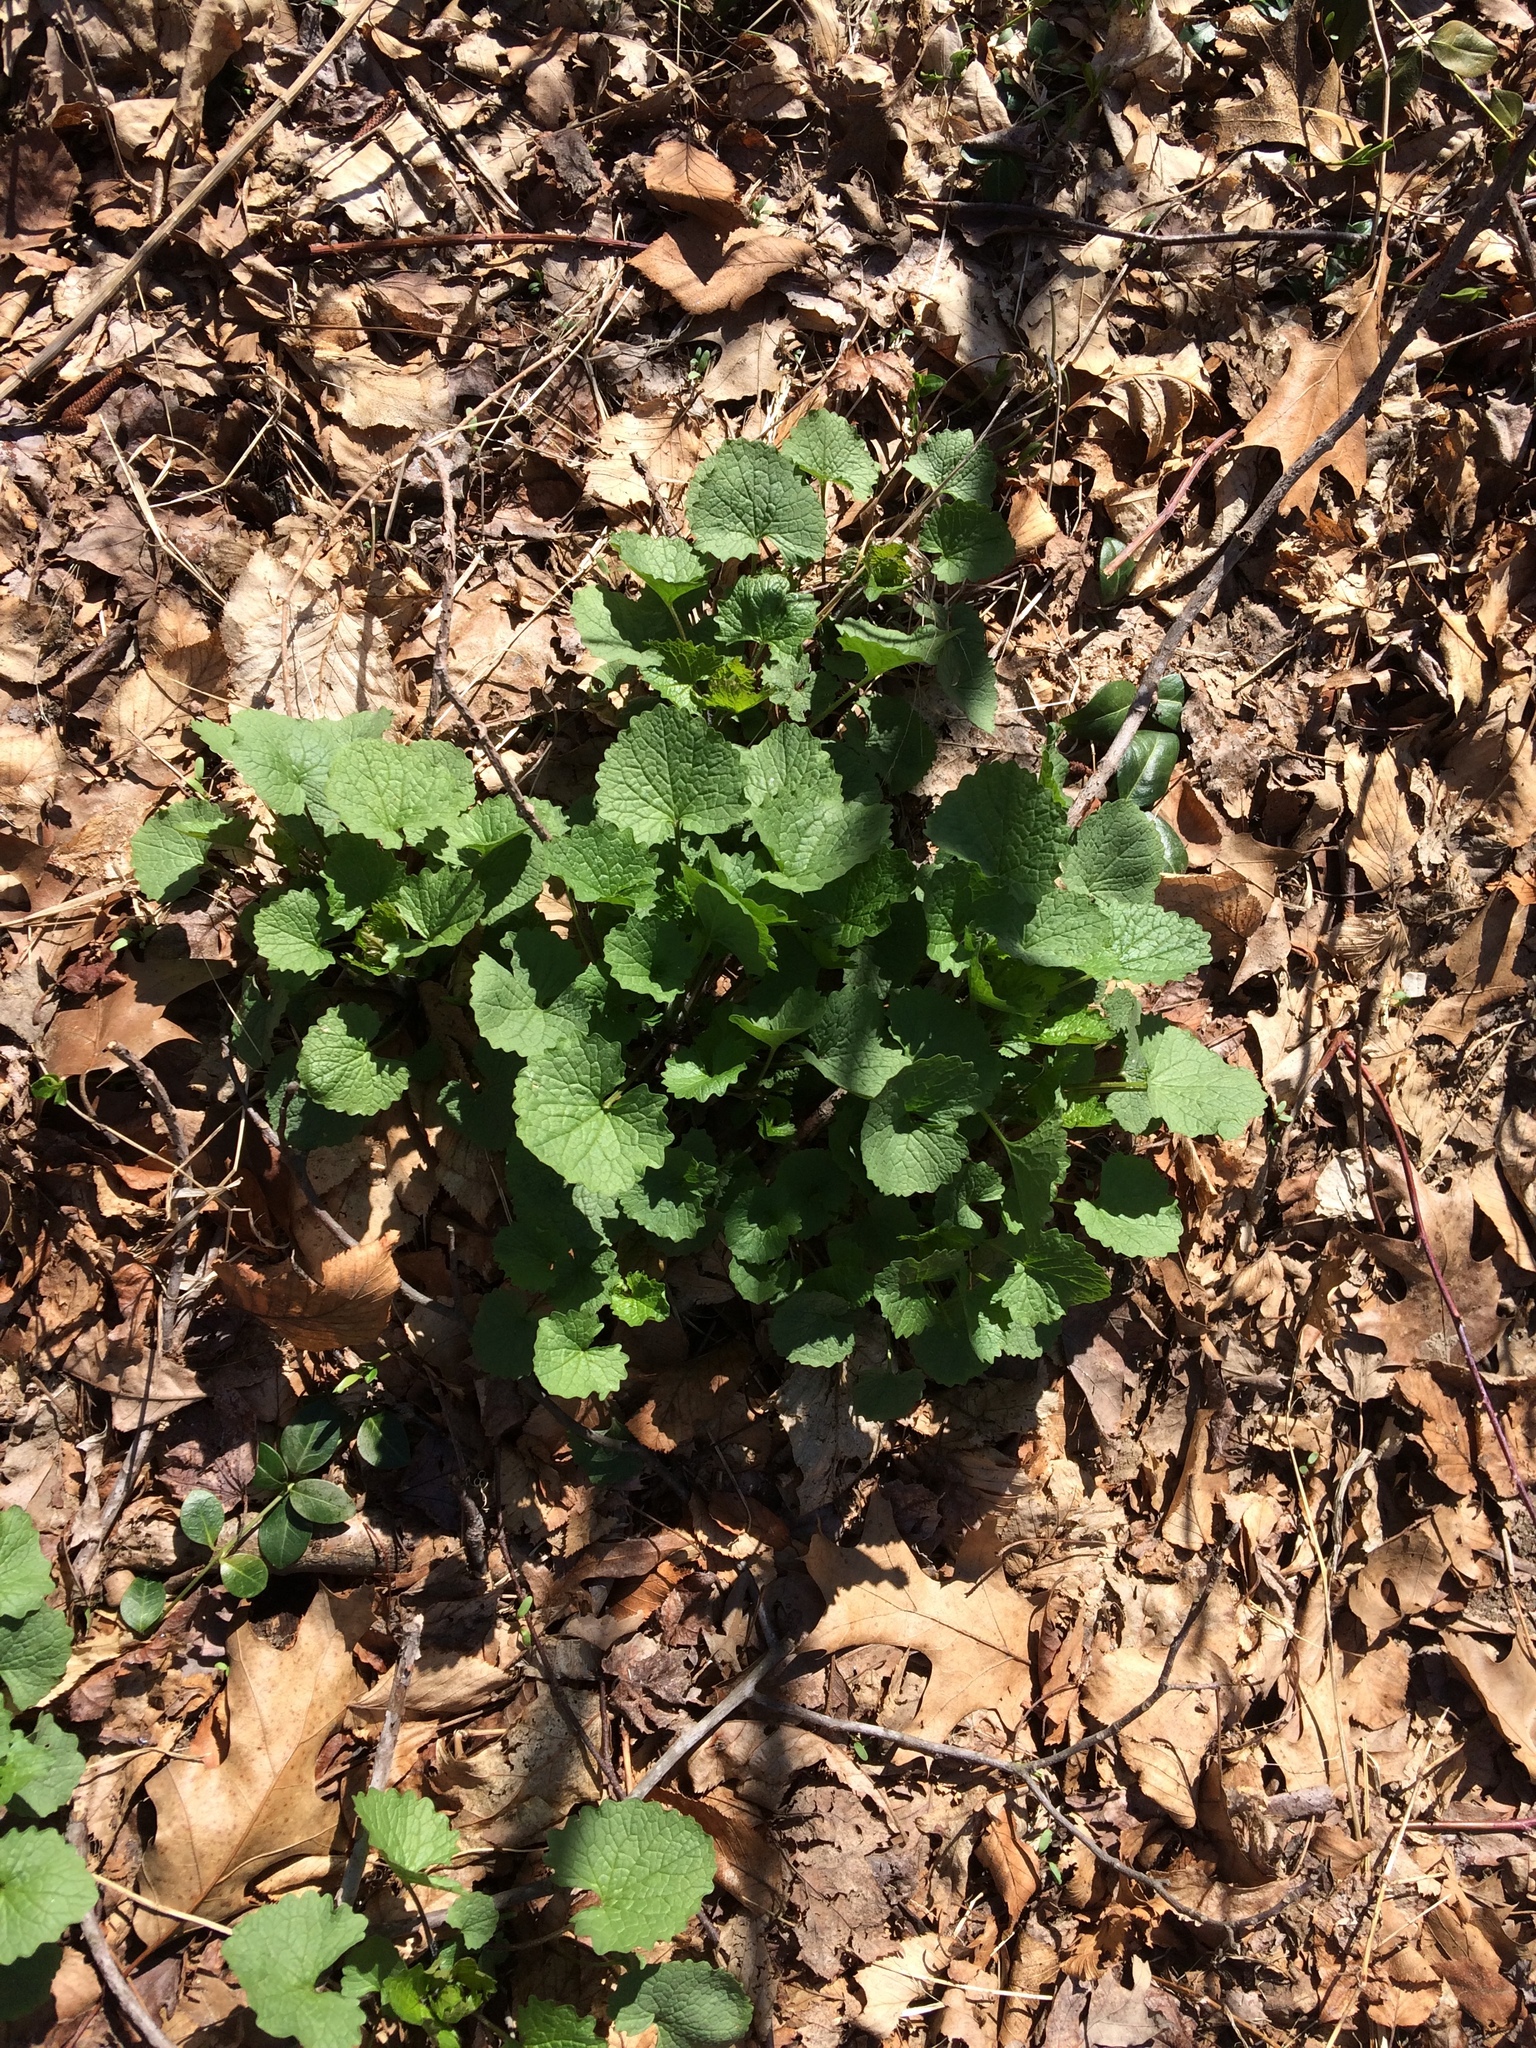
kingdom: Plantae
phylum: Tracheophyta
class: Magnoliopsida
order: Brassicales
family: Brassicaceae
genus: Alliaria
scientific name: Alliaria petiolata
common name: Garlic mustard
